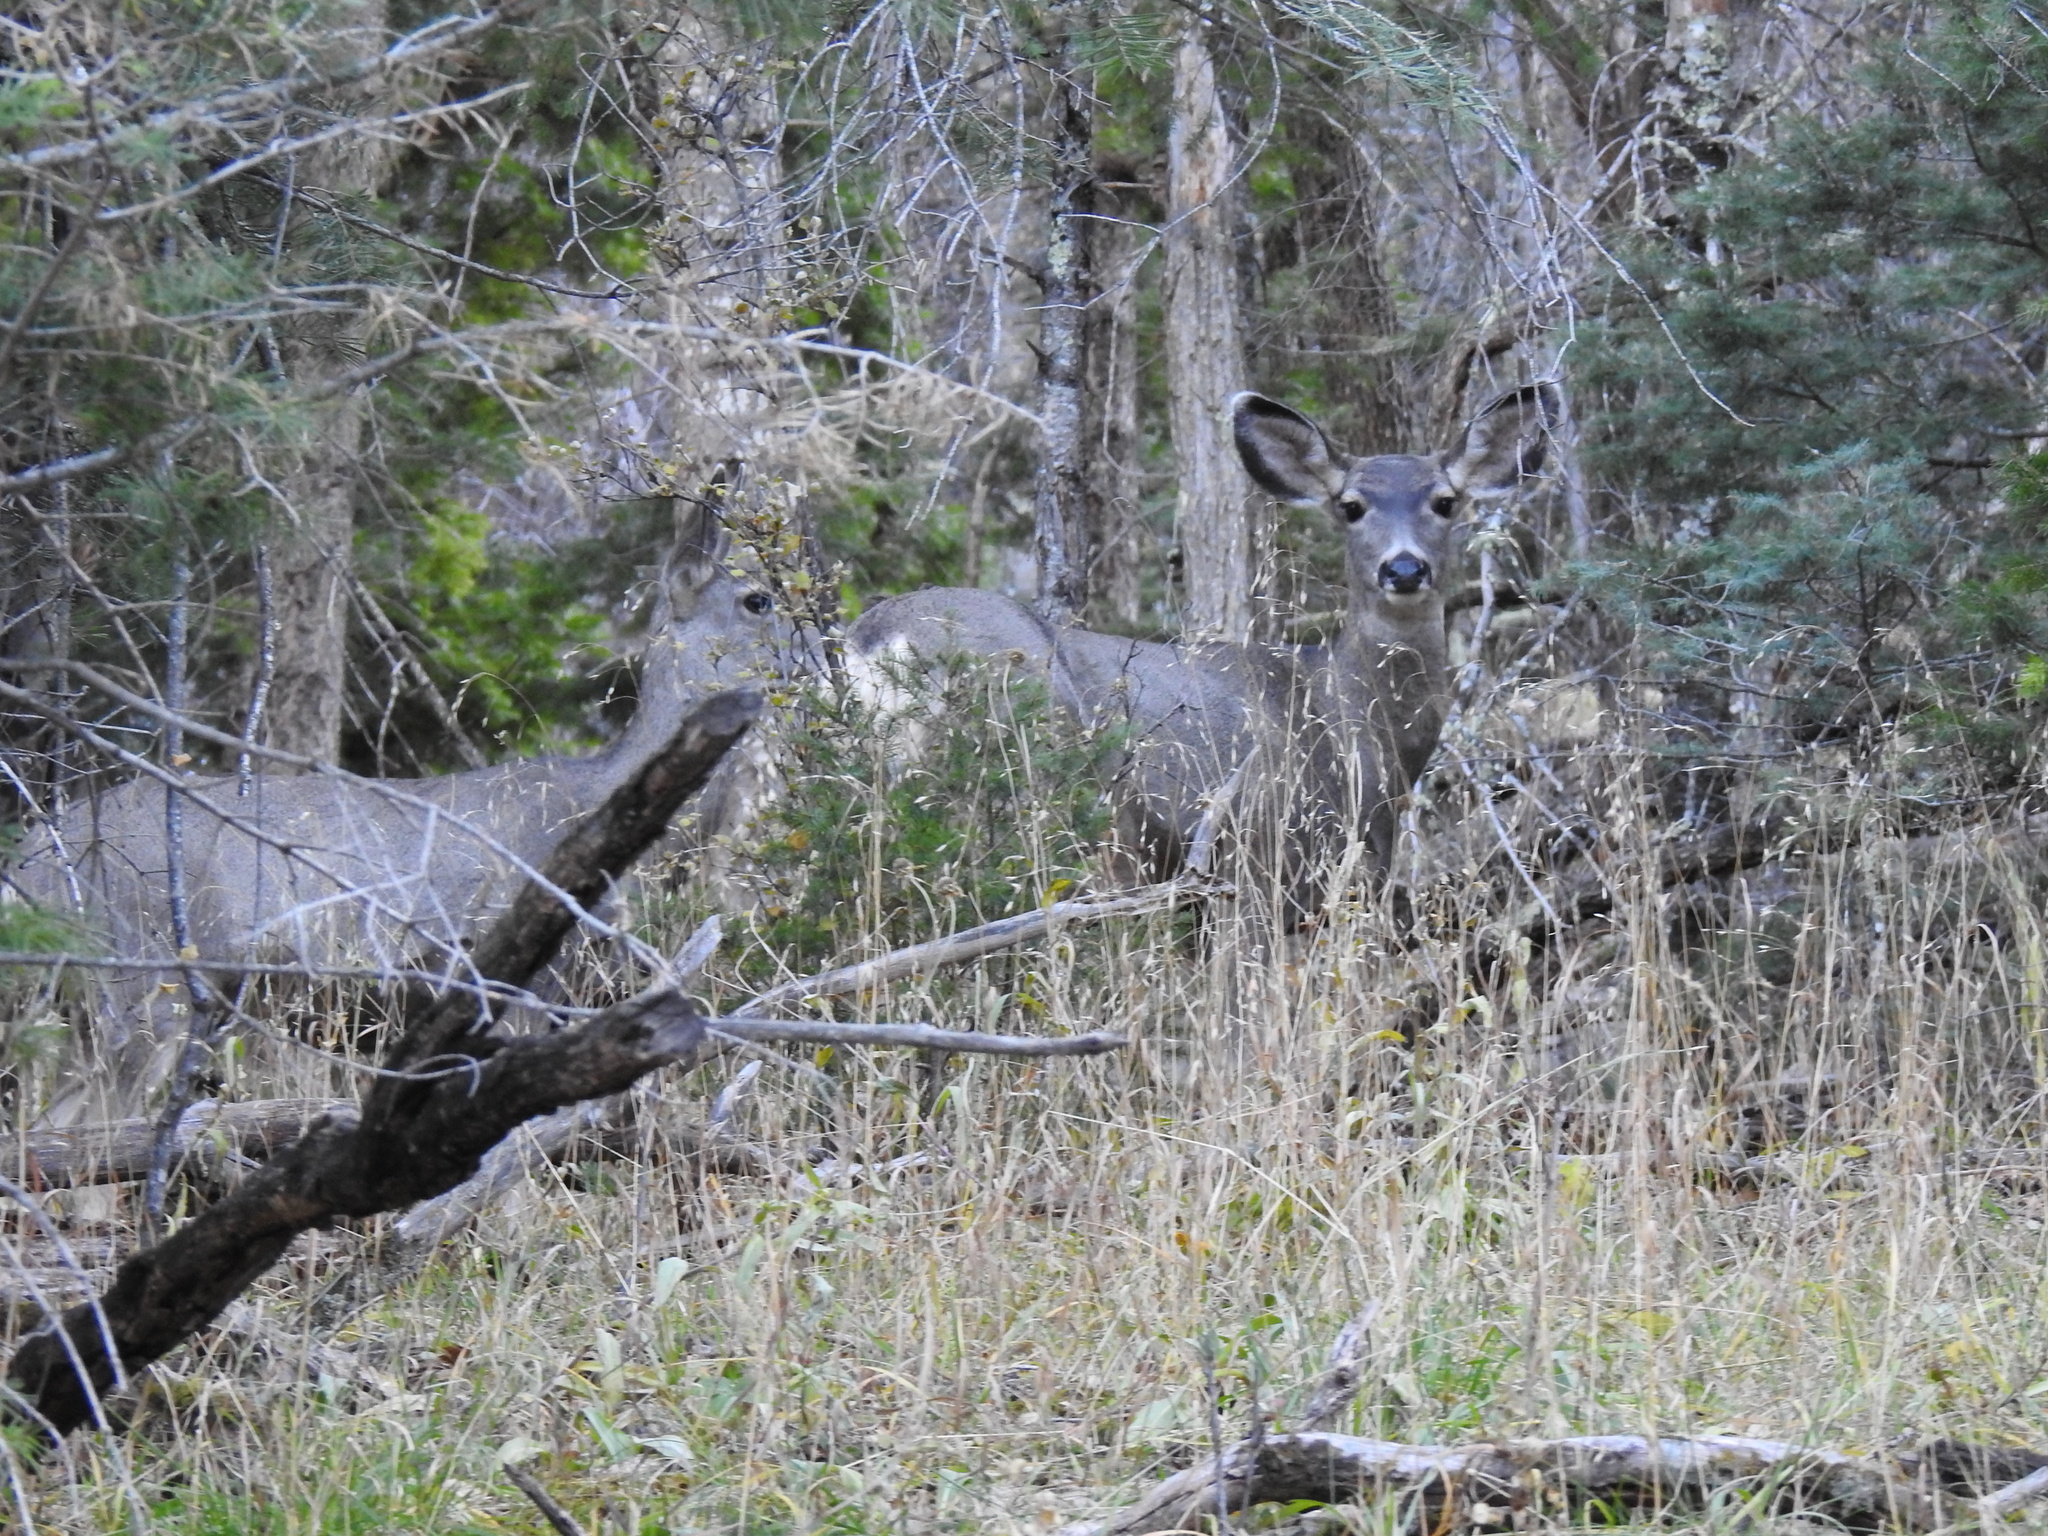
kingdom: Animalia
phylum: Chordata
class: Mammalia
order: Artiodactyla
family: Cervidae
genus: Odocoileus
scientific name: Odocoileus hemionus
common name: Mule deer
